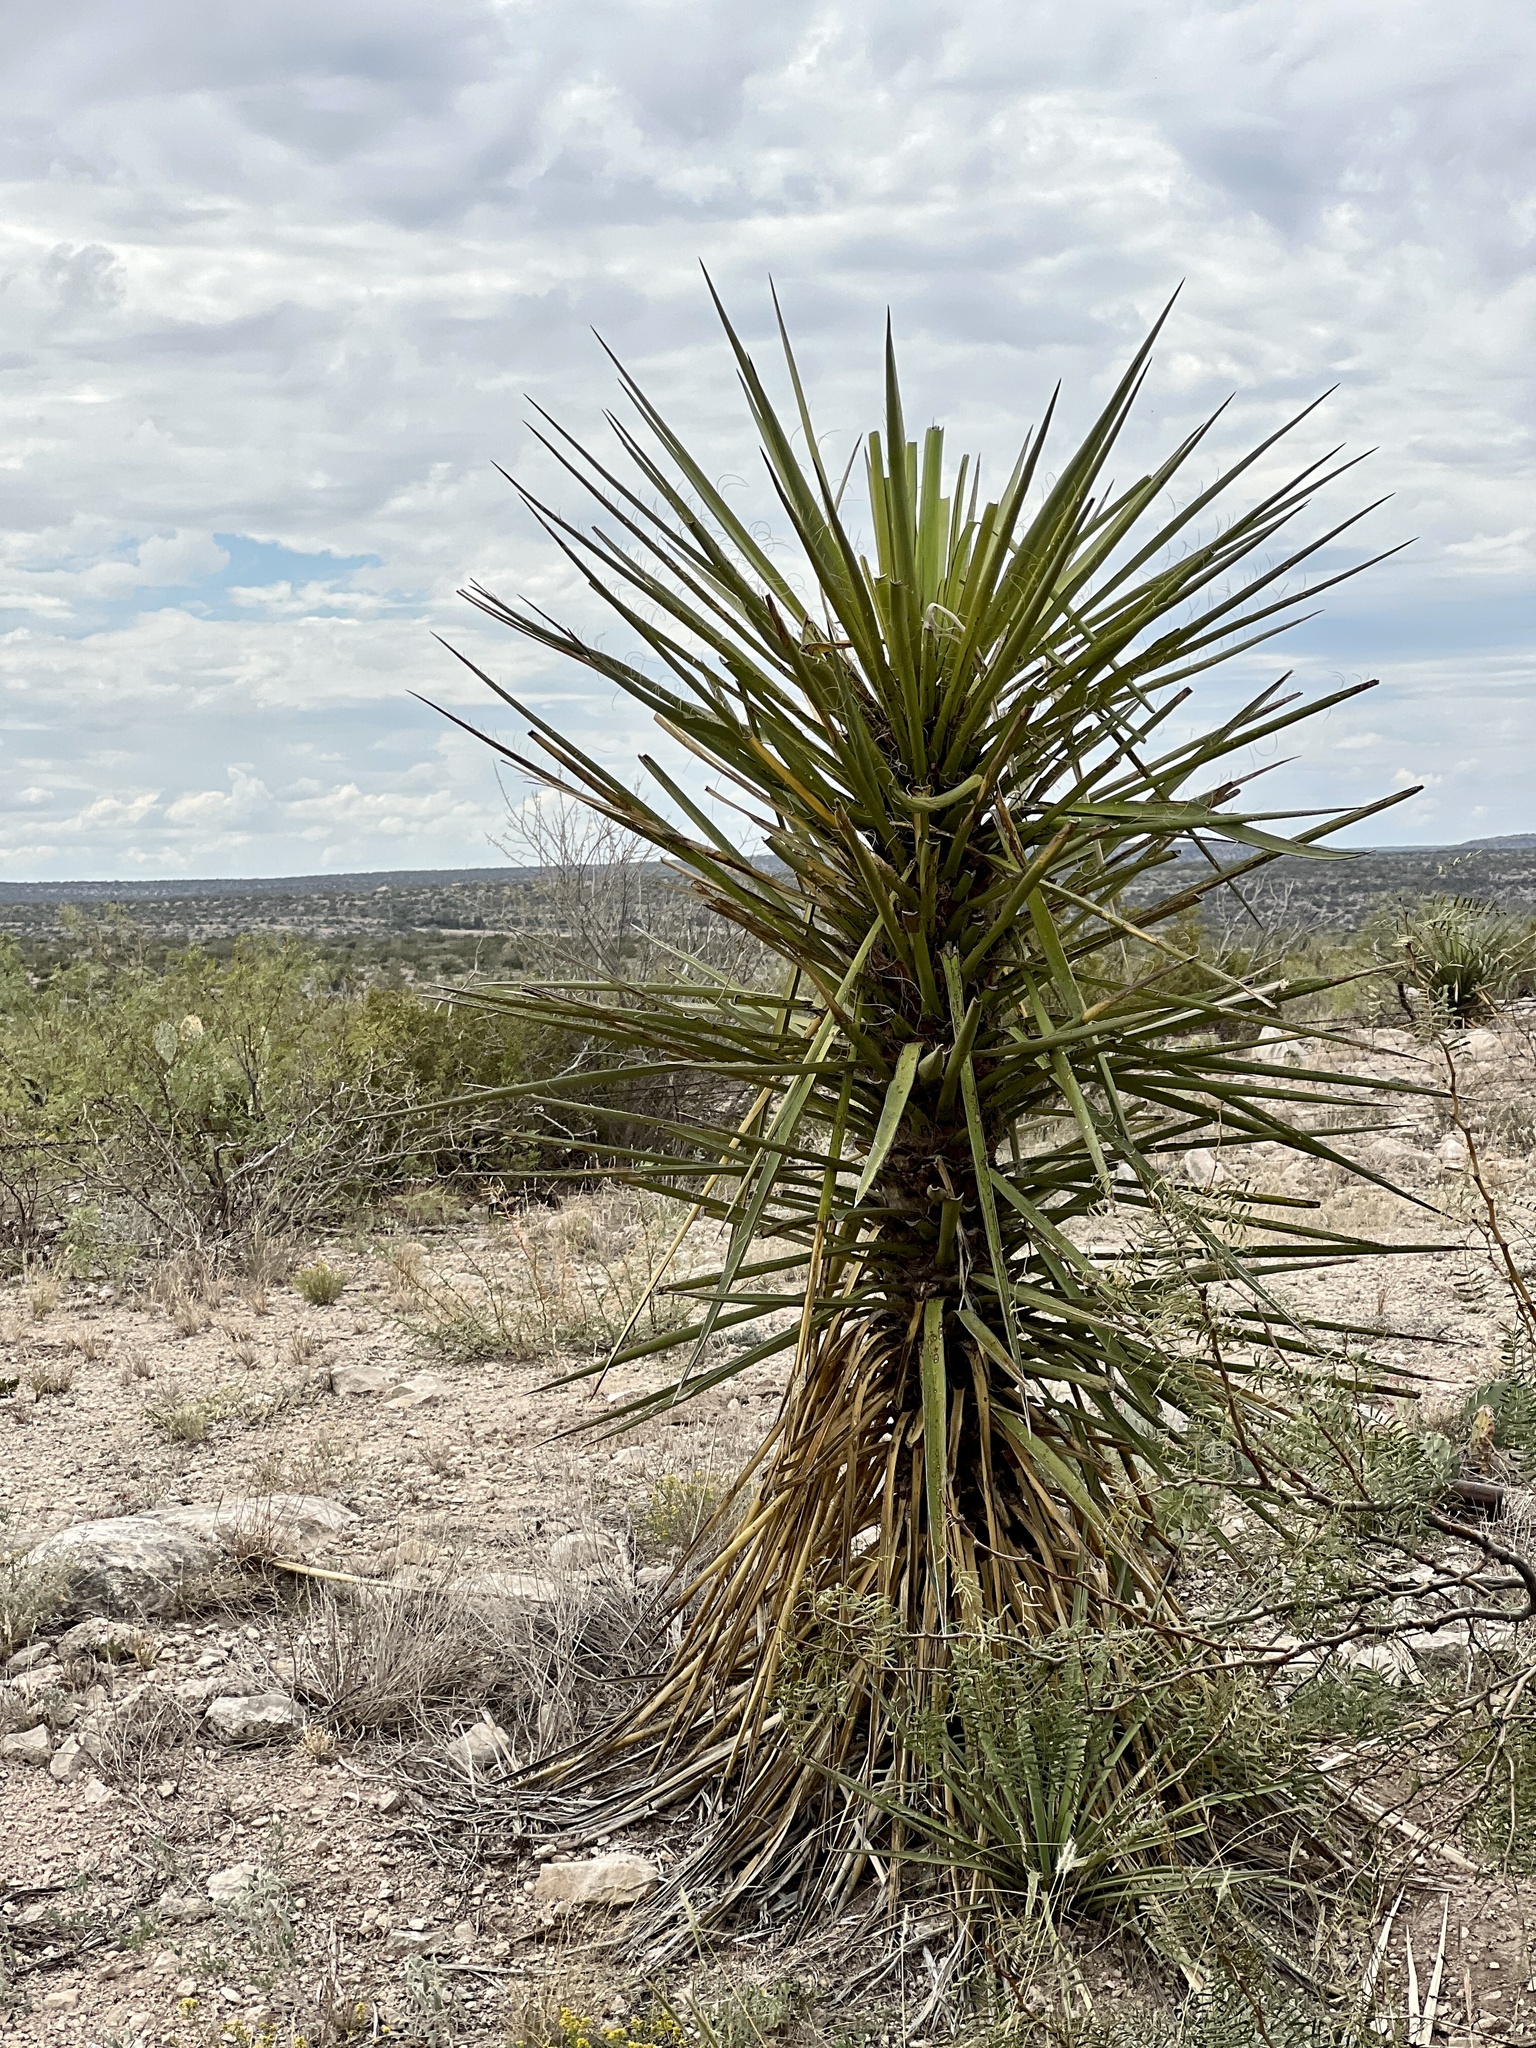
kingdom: Plantae
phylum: Tracheophyta
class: Liliopsida
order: Asparagales
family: Asparagaceae
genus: Yucca
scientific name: Yucca treculiana
